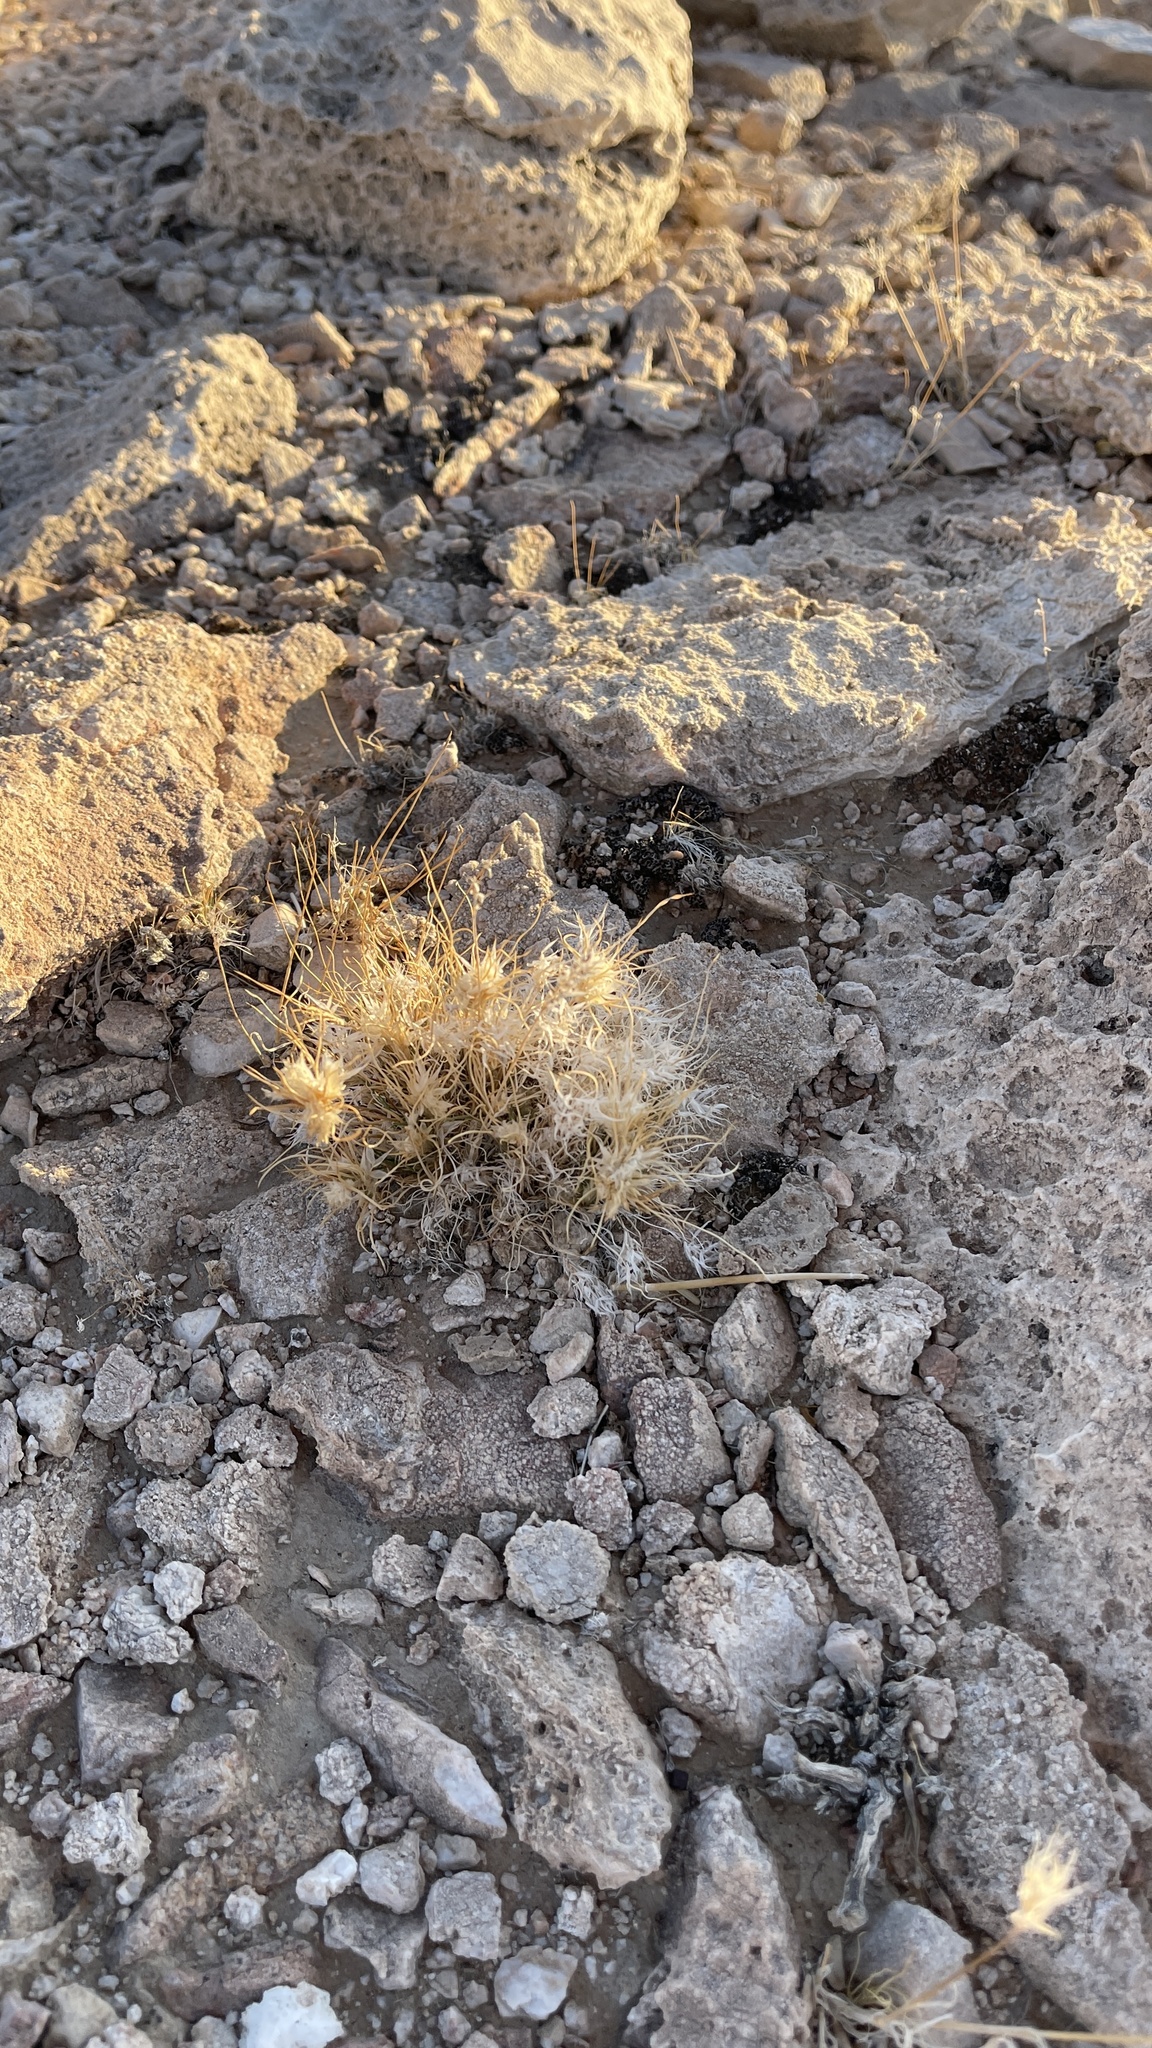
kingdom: Plantae
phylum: Tracheophyta
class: Liliopsida
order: Poales
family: Poaceae
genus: Dasyochloa
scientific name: Dasyochloa pulchella
